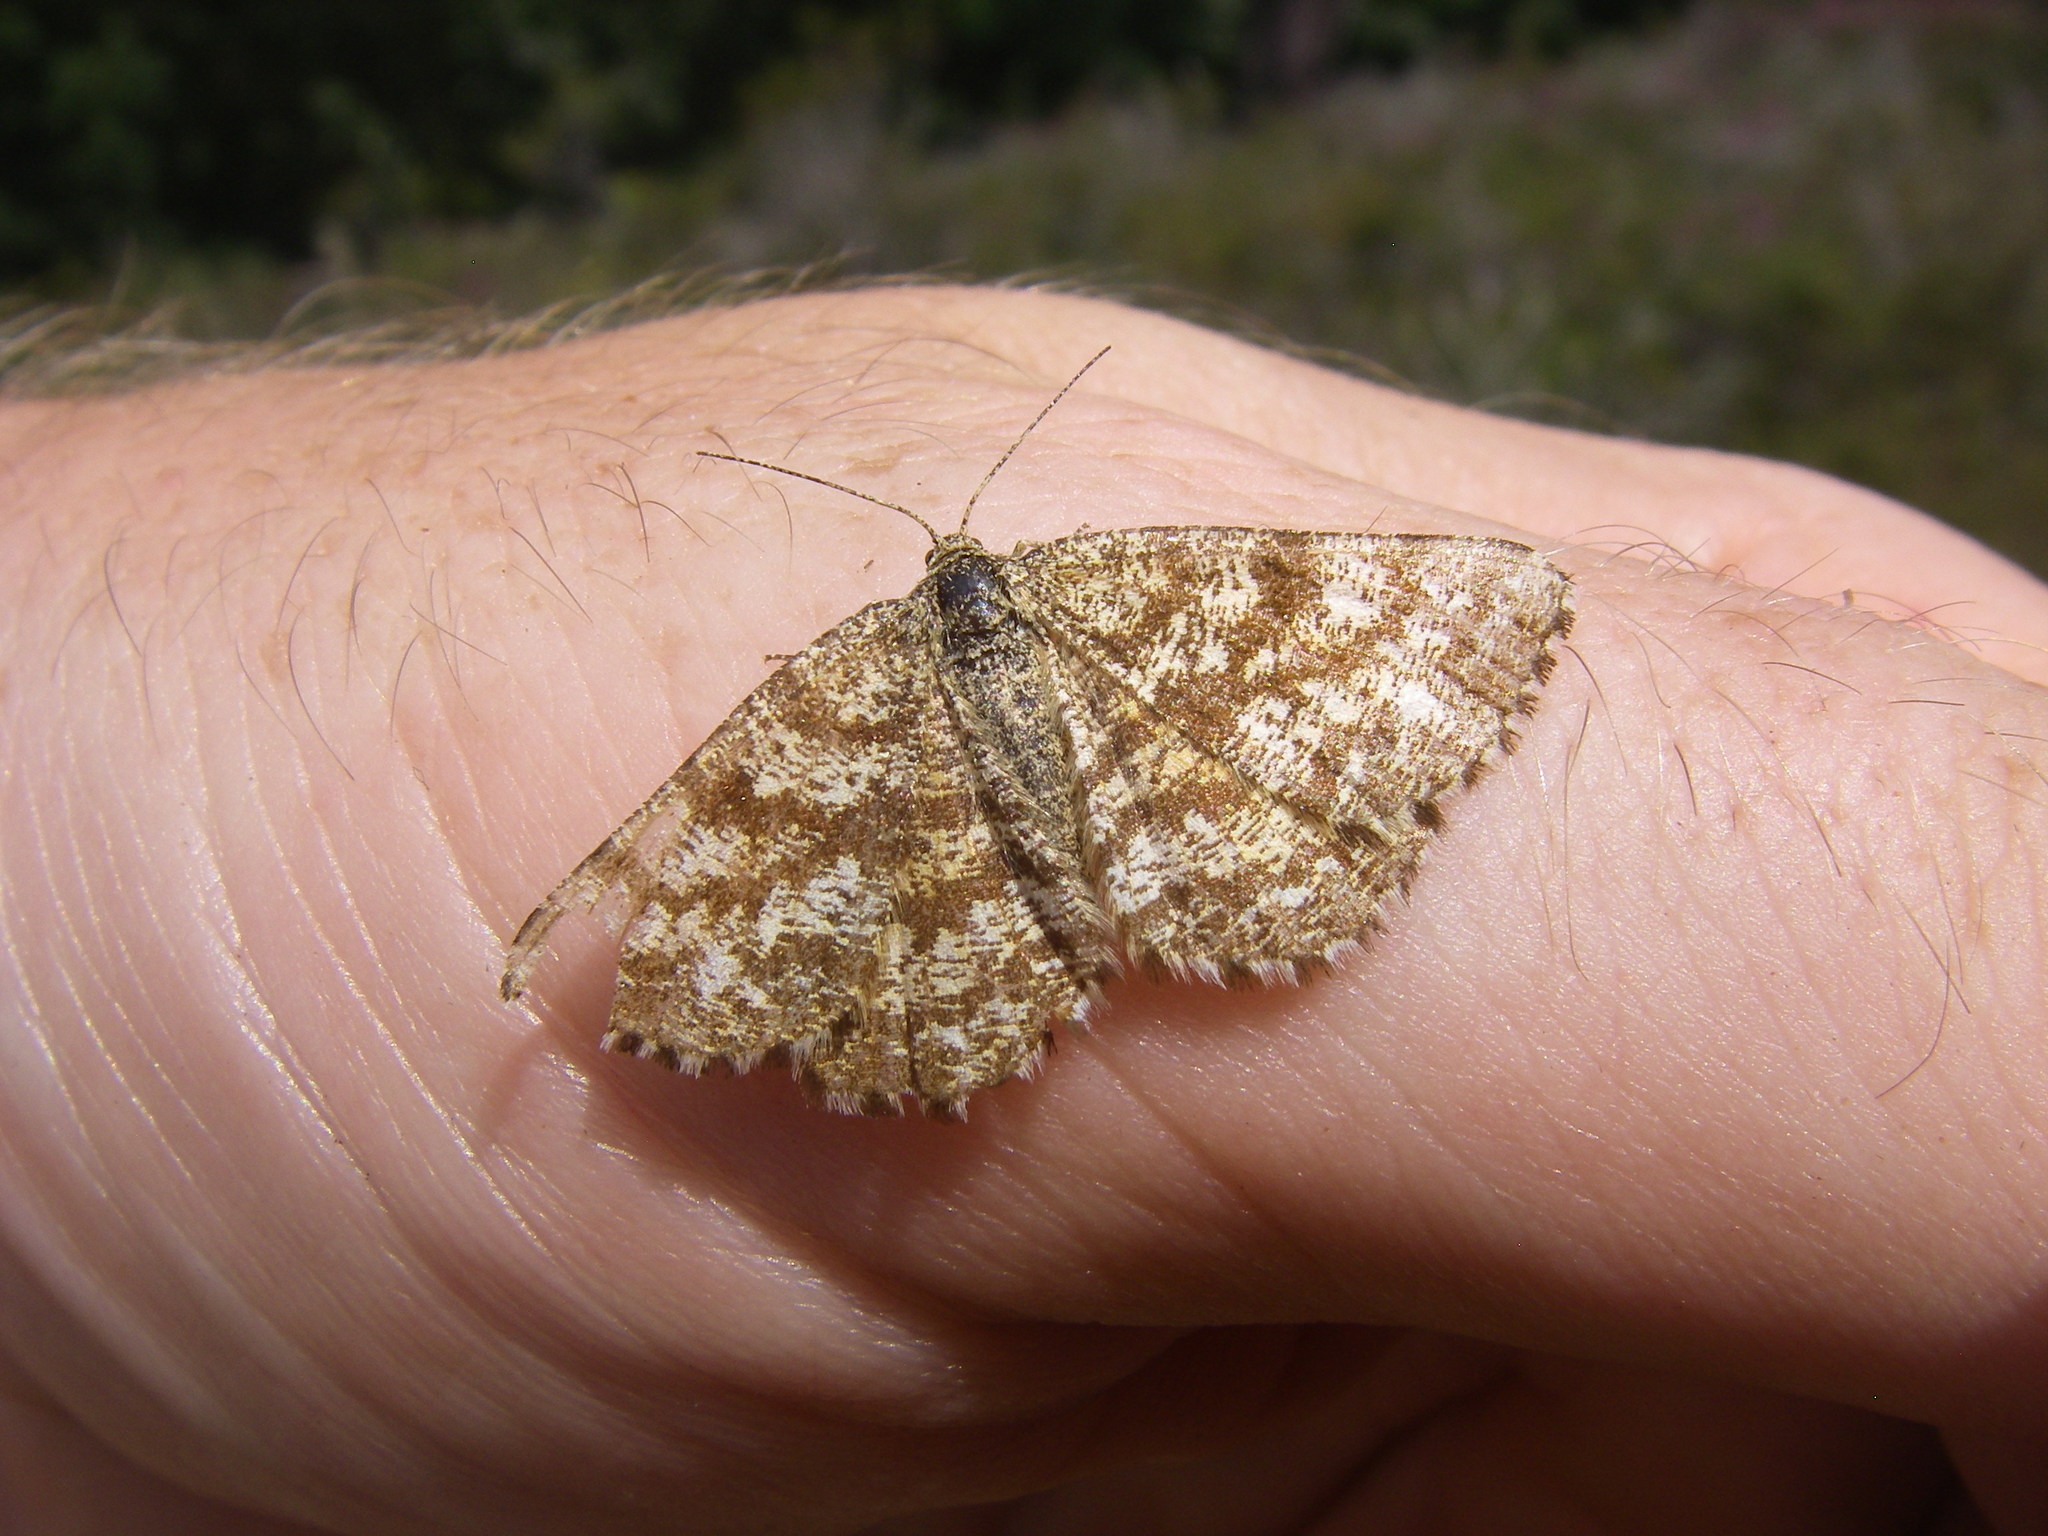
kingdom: Animalia
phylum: Arthropoda
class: Insecta
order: Lepidoptera
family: Geometridae
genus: Ematurga
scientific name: Ematurga atomaria
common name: Common heath
